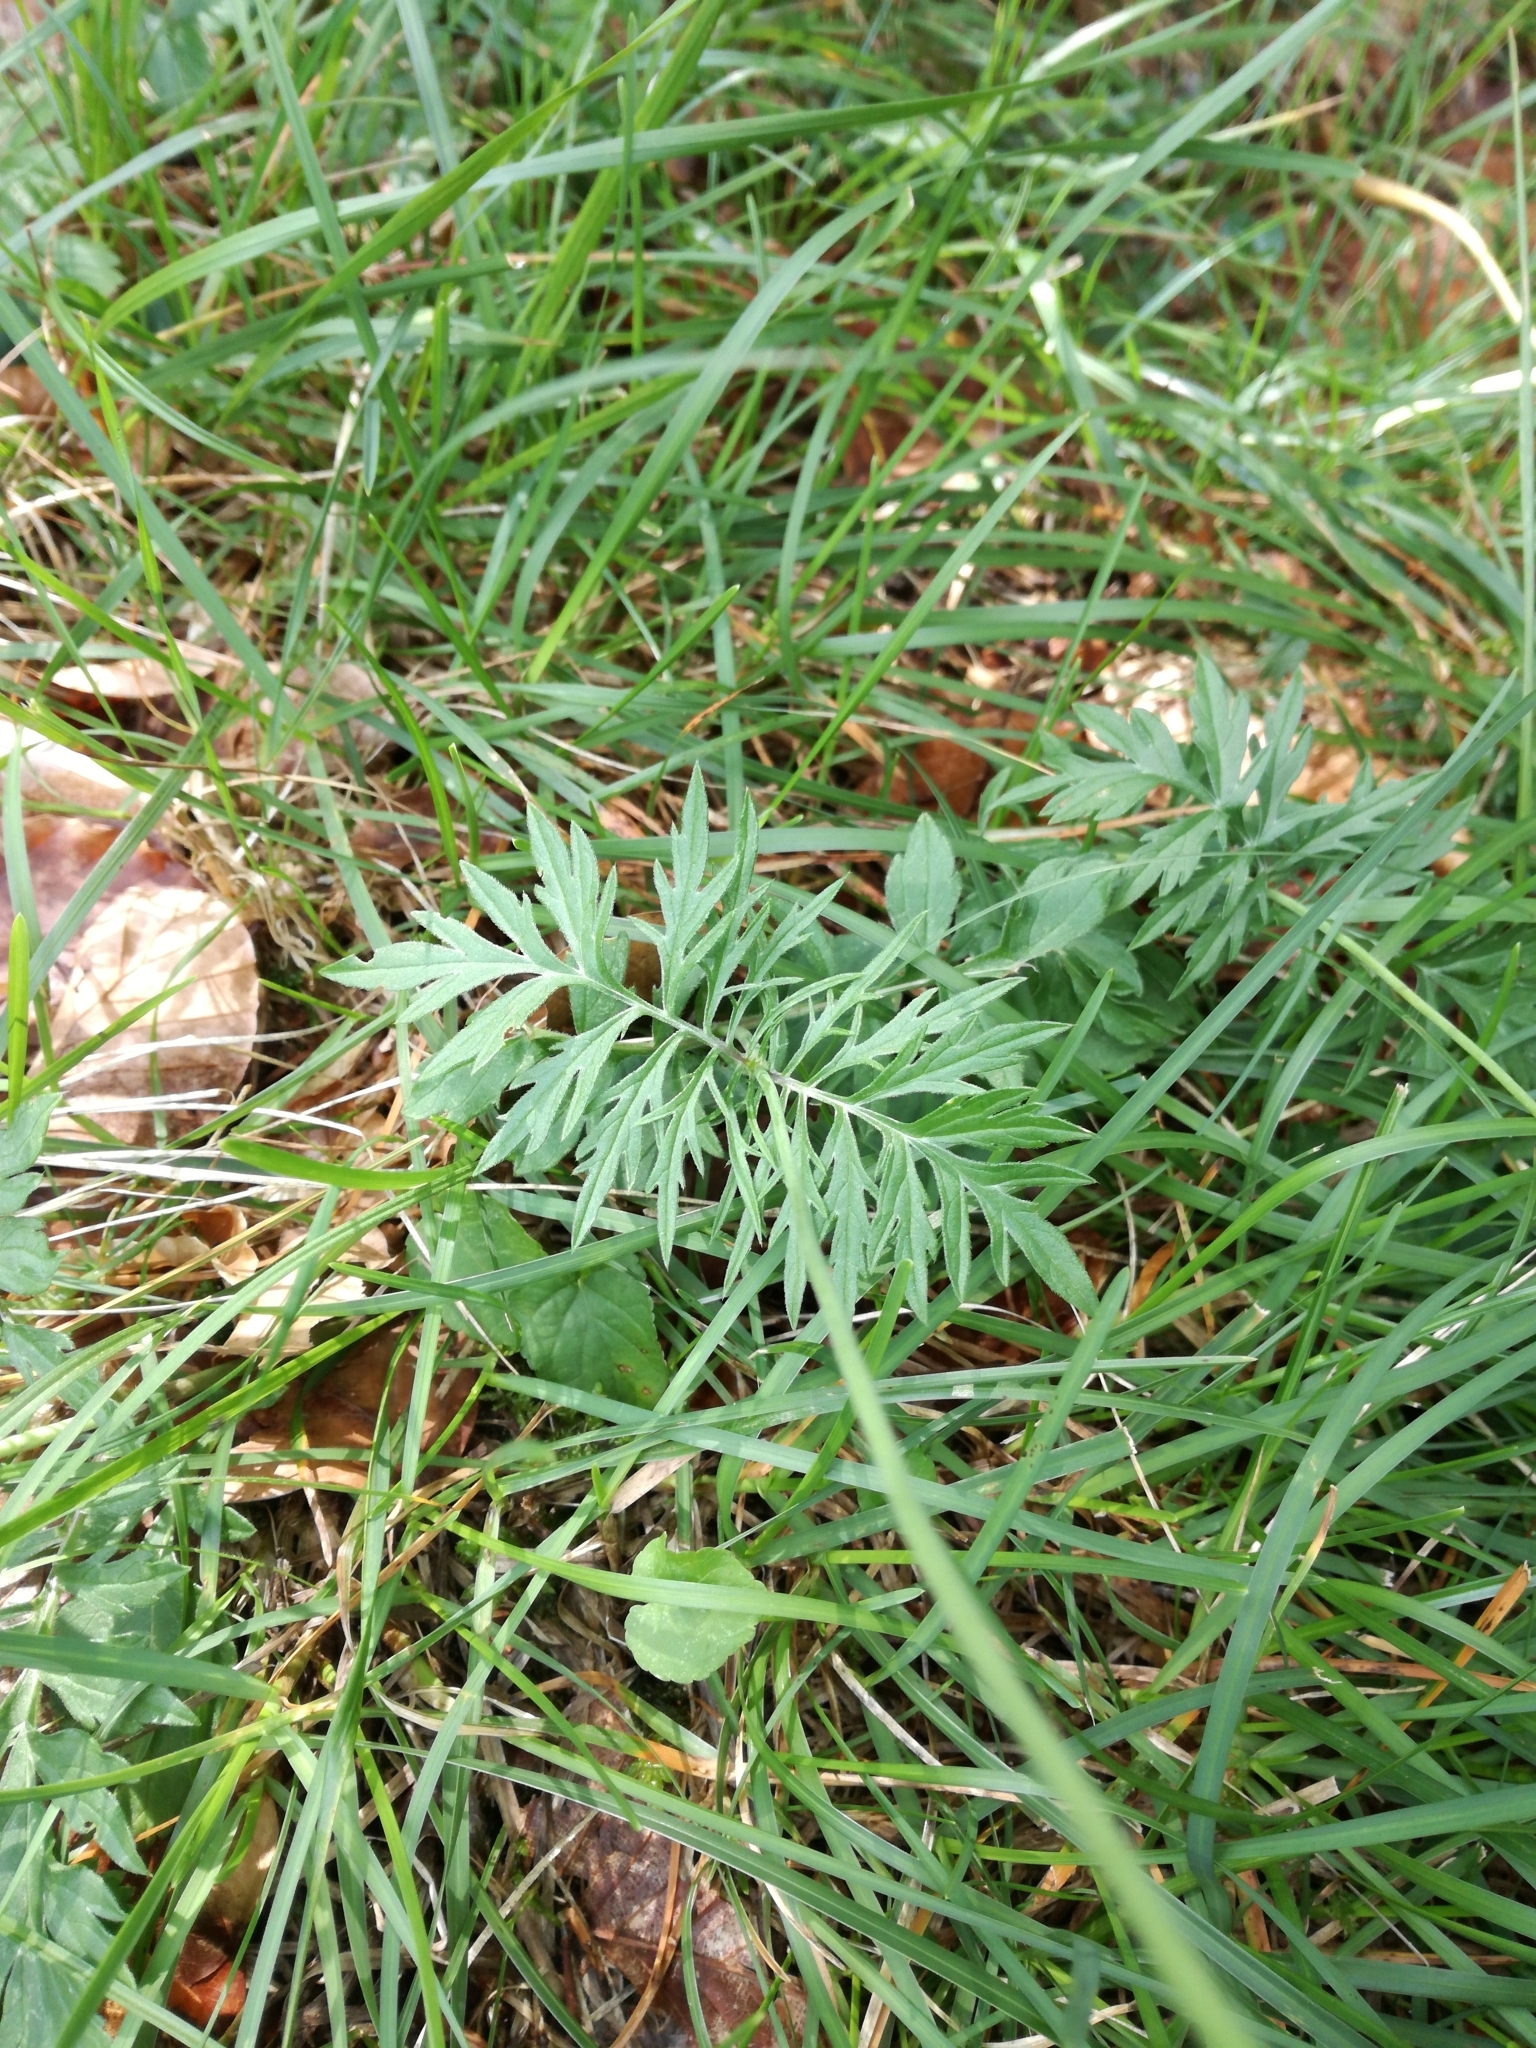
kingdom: Plantae
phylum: Tracheophyta
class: Magnoliopsida
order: Dipsacales
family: Caprifoliaceae
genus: Knautia
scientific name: Knautia arvensis
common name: Field scabiosa
